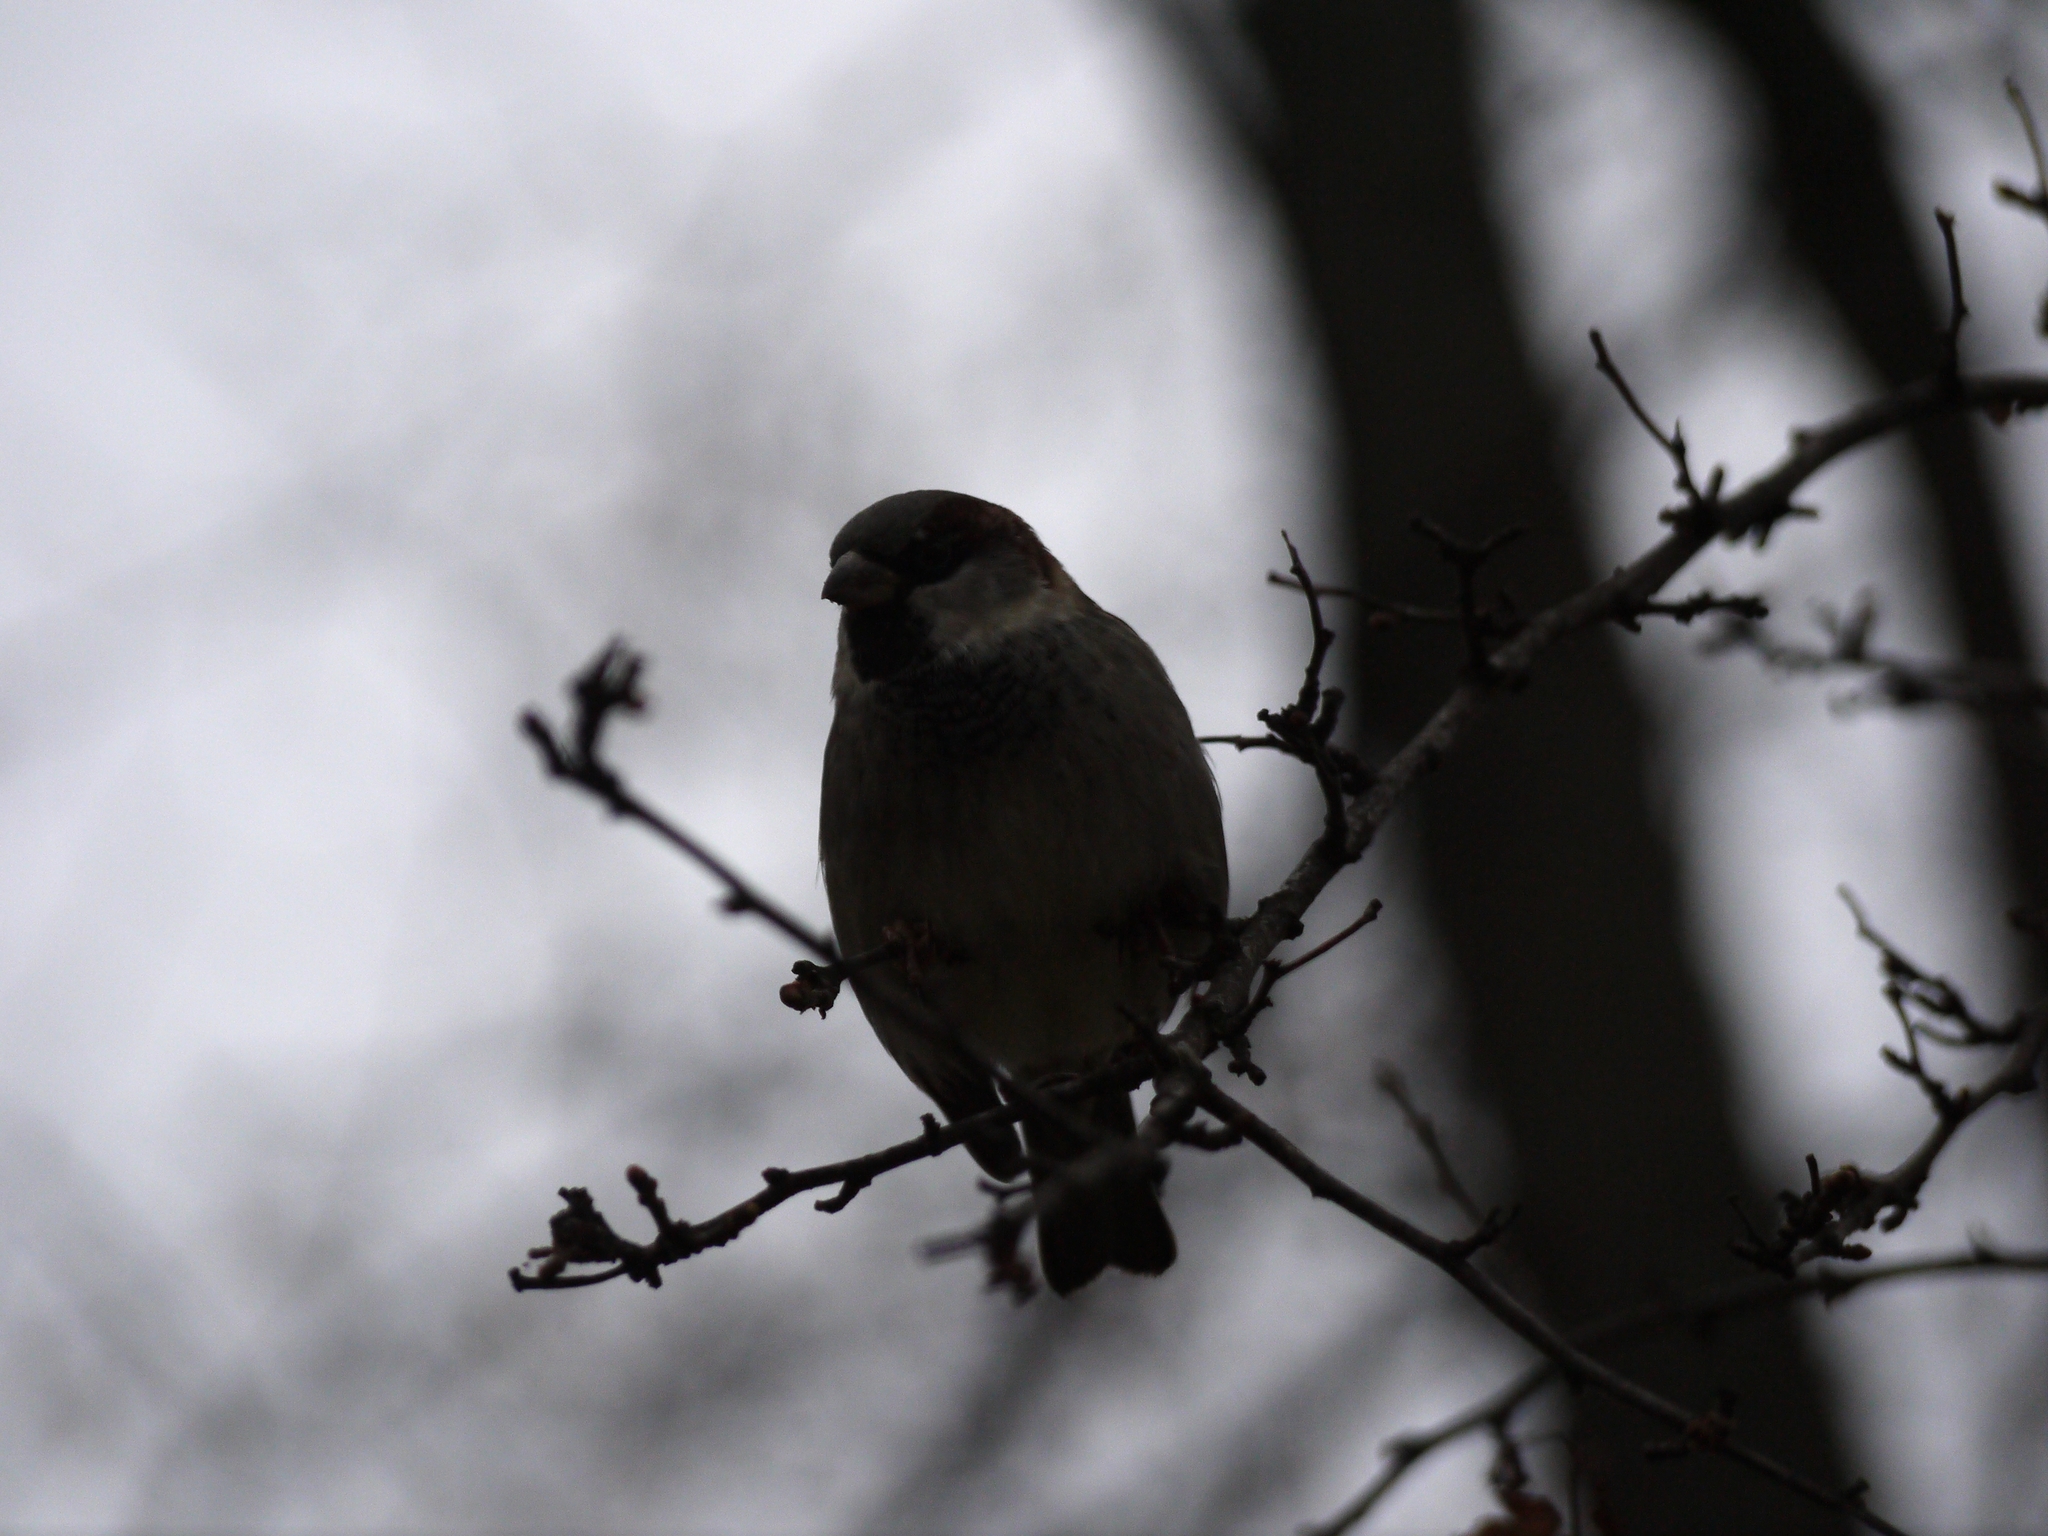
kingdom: Animalia
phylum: Chordata
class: Aves
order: Passeriformes
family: Passeridae
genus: Passer
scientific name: Passer domesticus
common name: House sparrow
